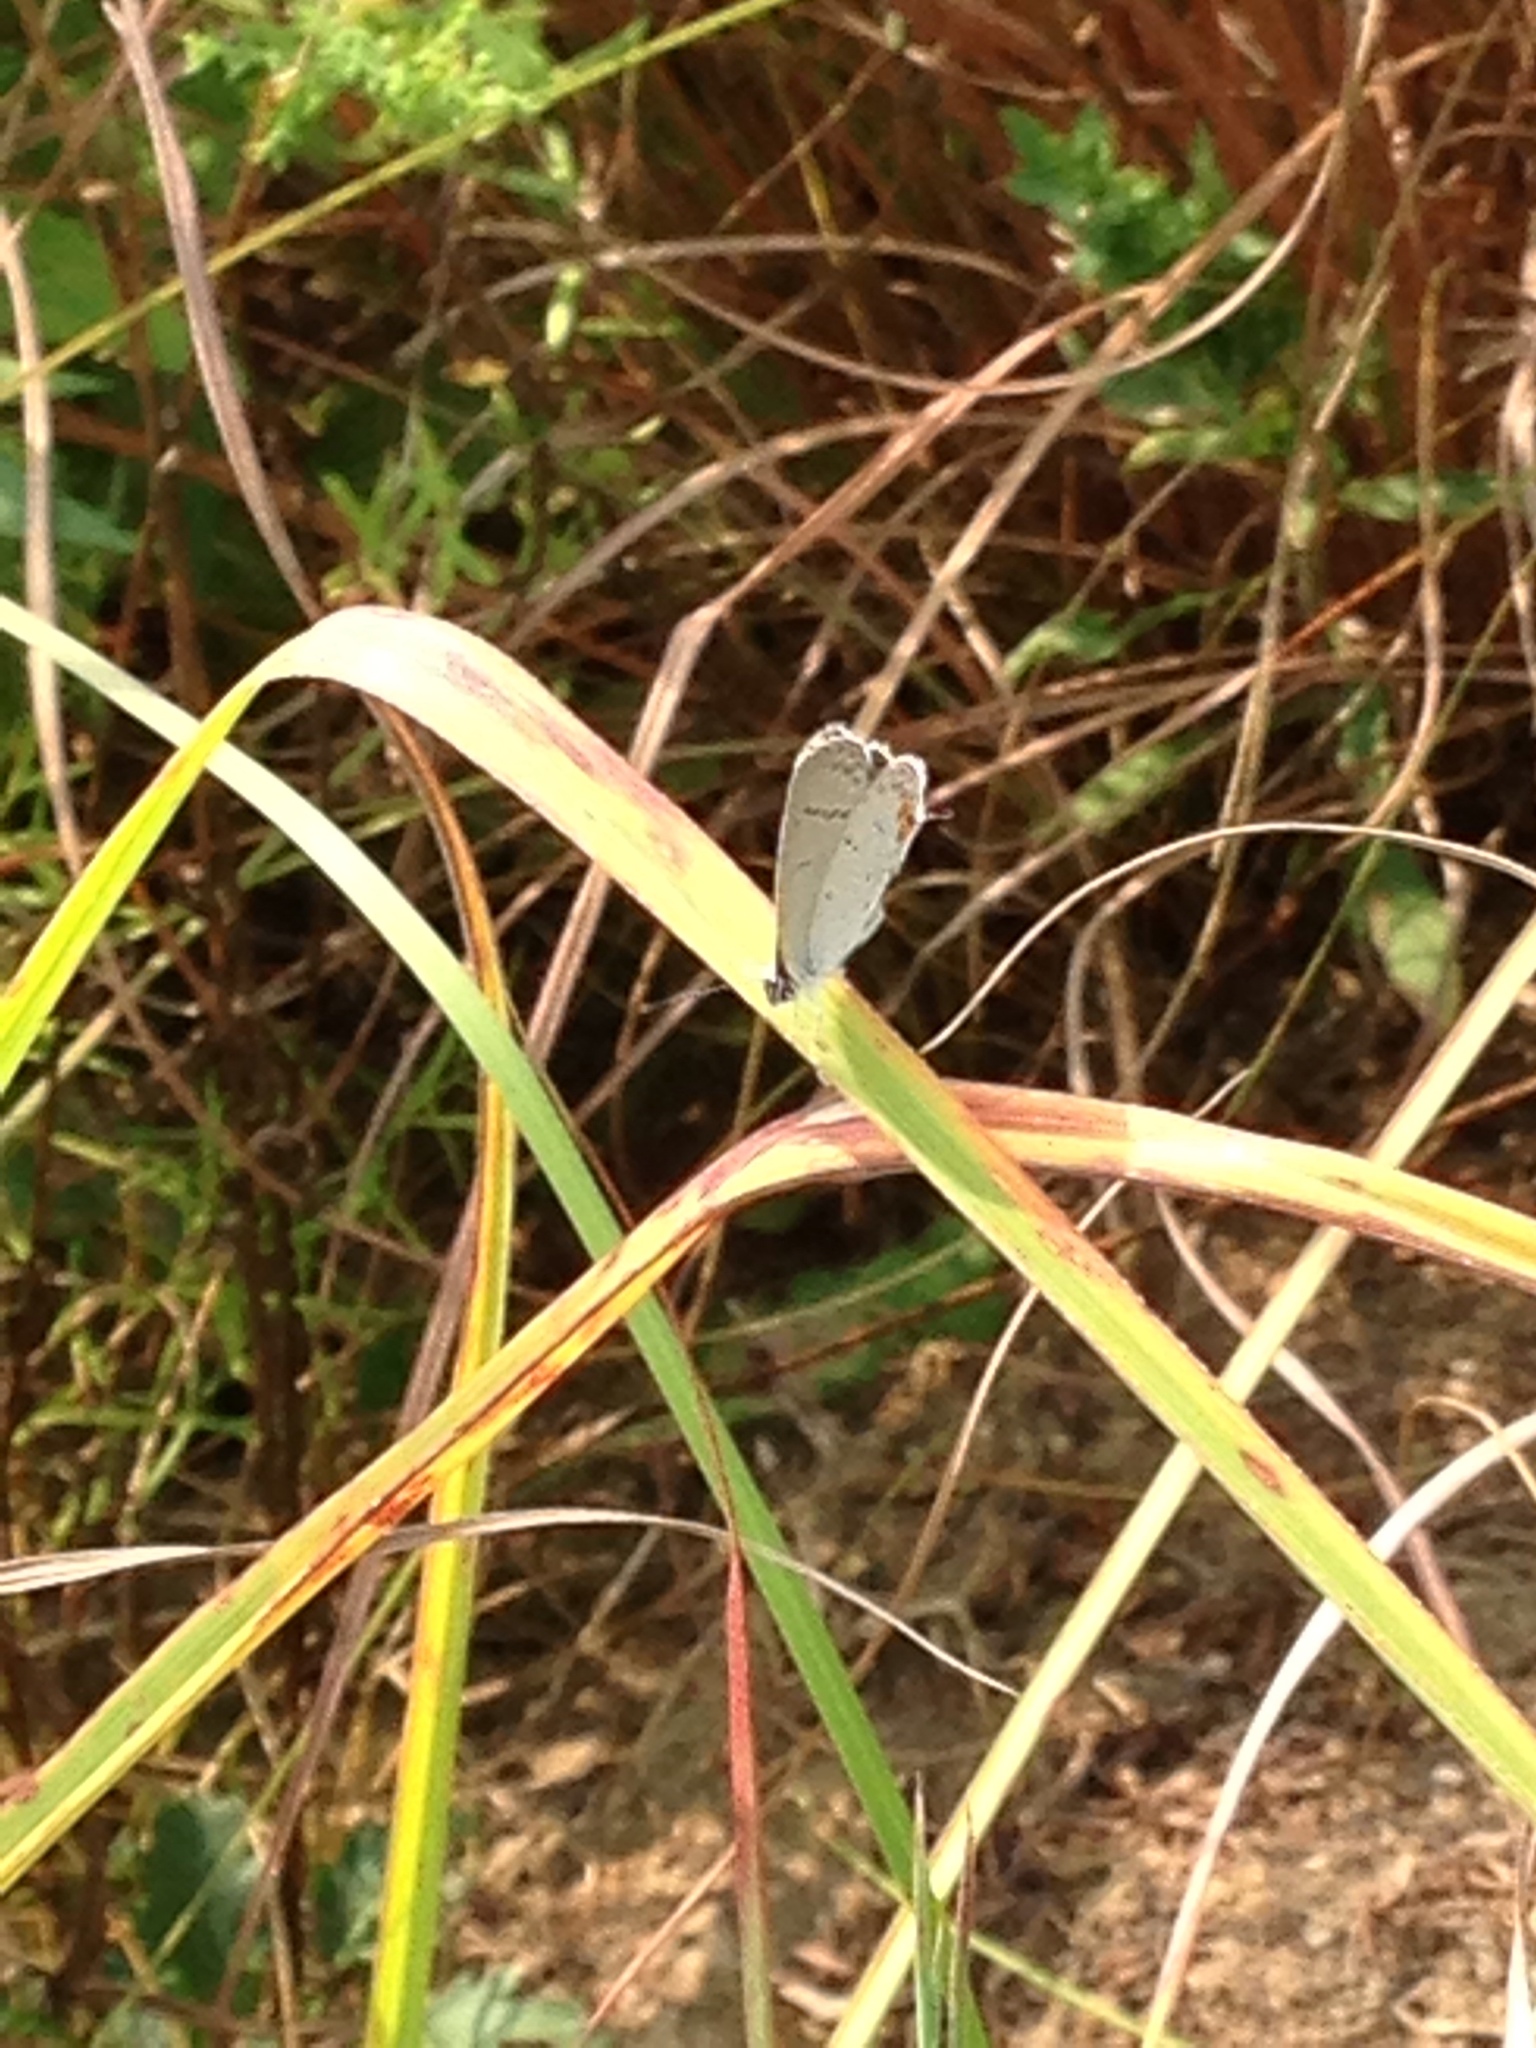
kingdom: Animalia
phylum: Arthropoda
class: Insecta
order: Lepidoptera
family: Lycaenidae
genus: Elkalyce
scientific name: Elkalyce comyntas
